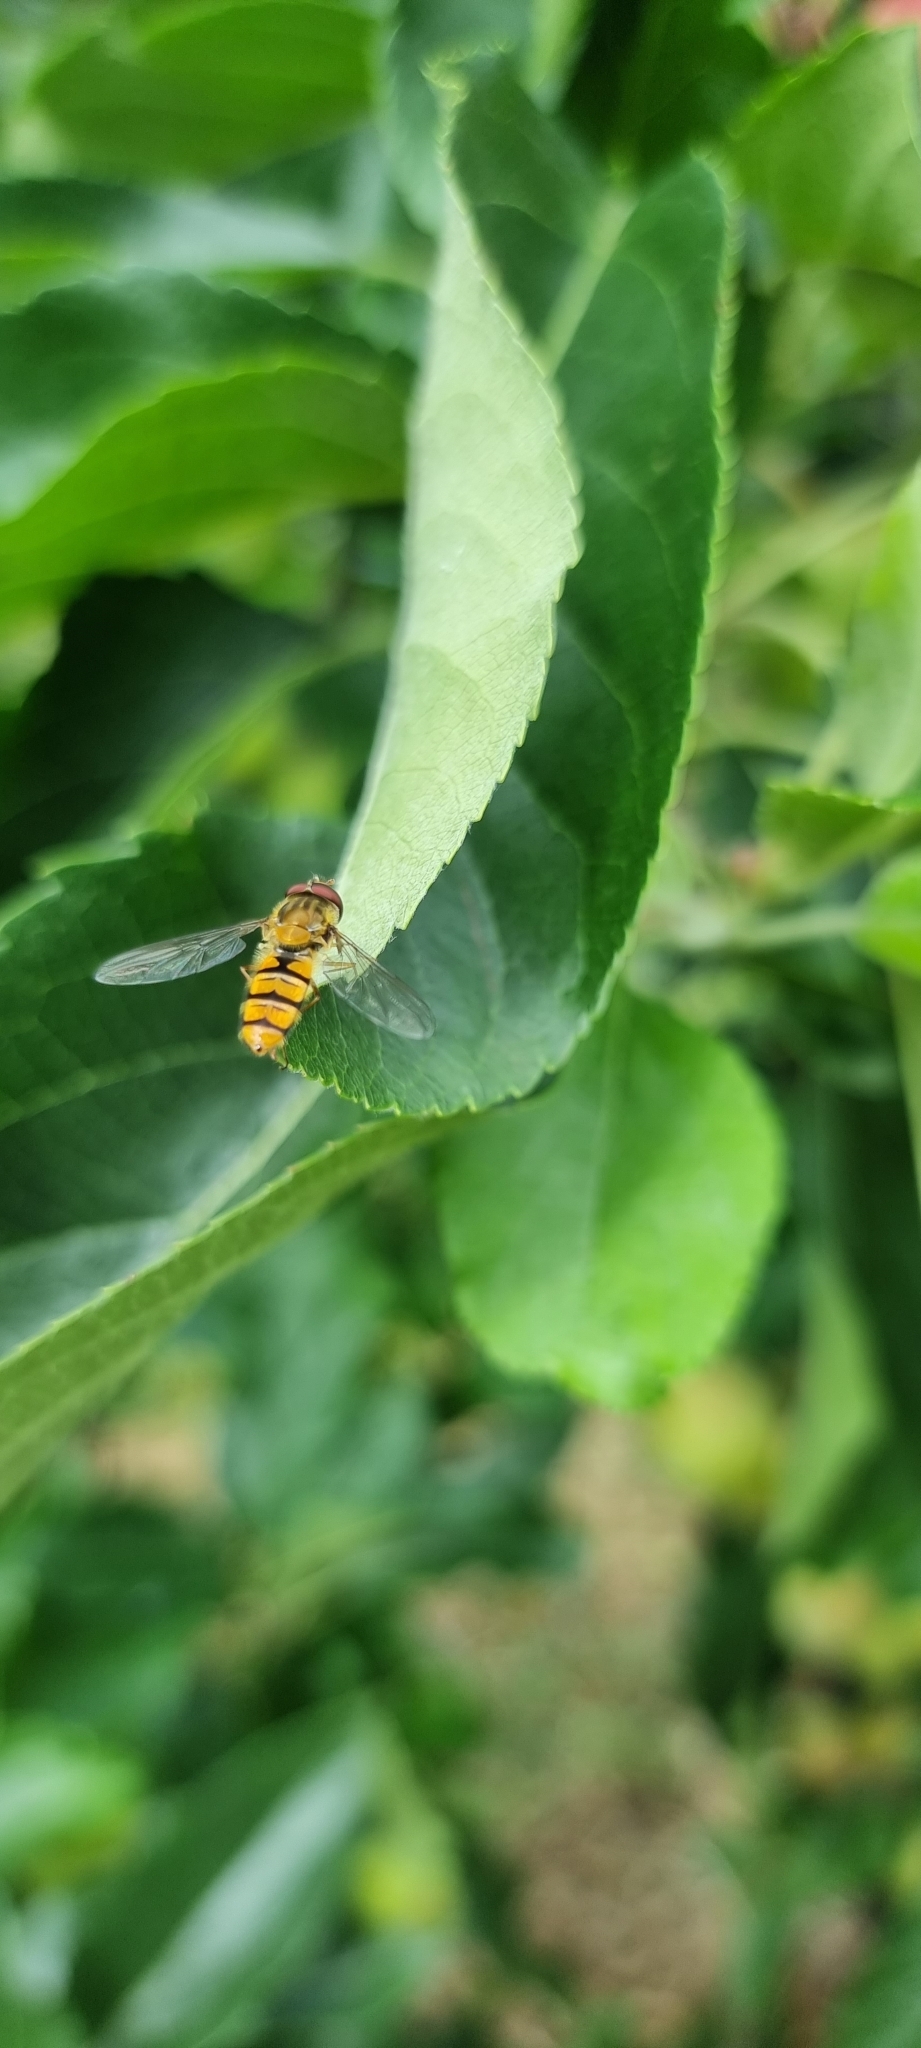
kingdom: Animalia
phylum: Arthropoda
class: Insecta
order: Diptera
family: Syrphidae
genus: Episyrphus
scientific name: Episyrphus balteatus
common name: Marmalade hoverfly
